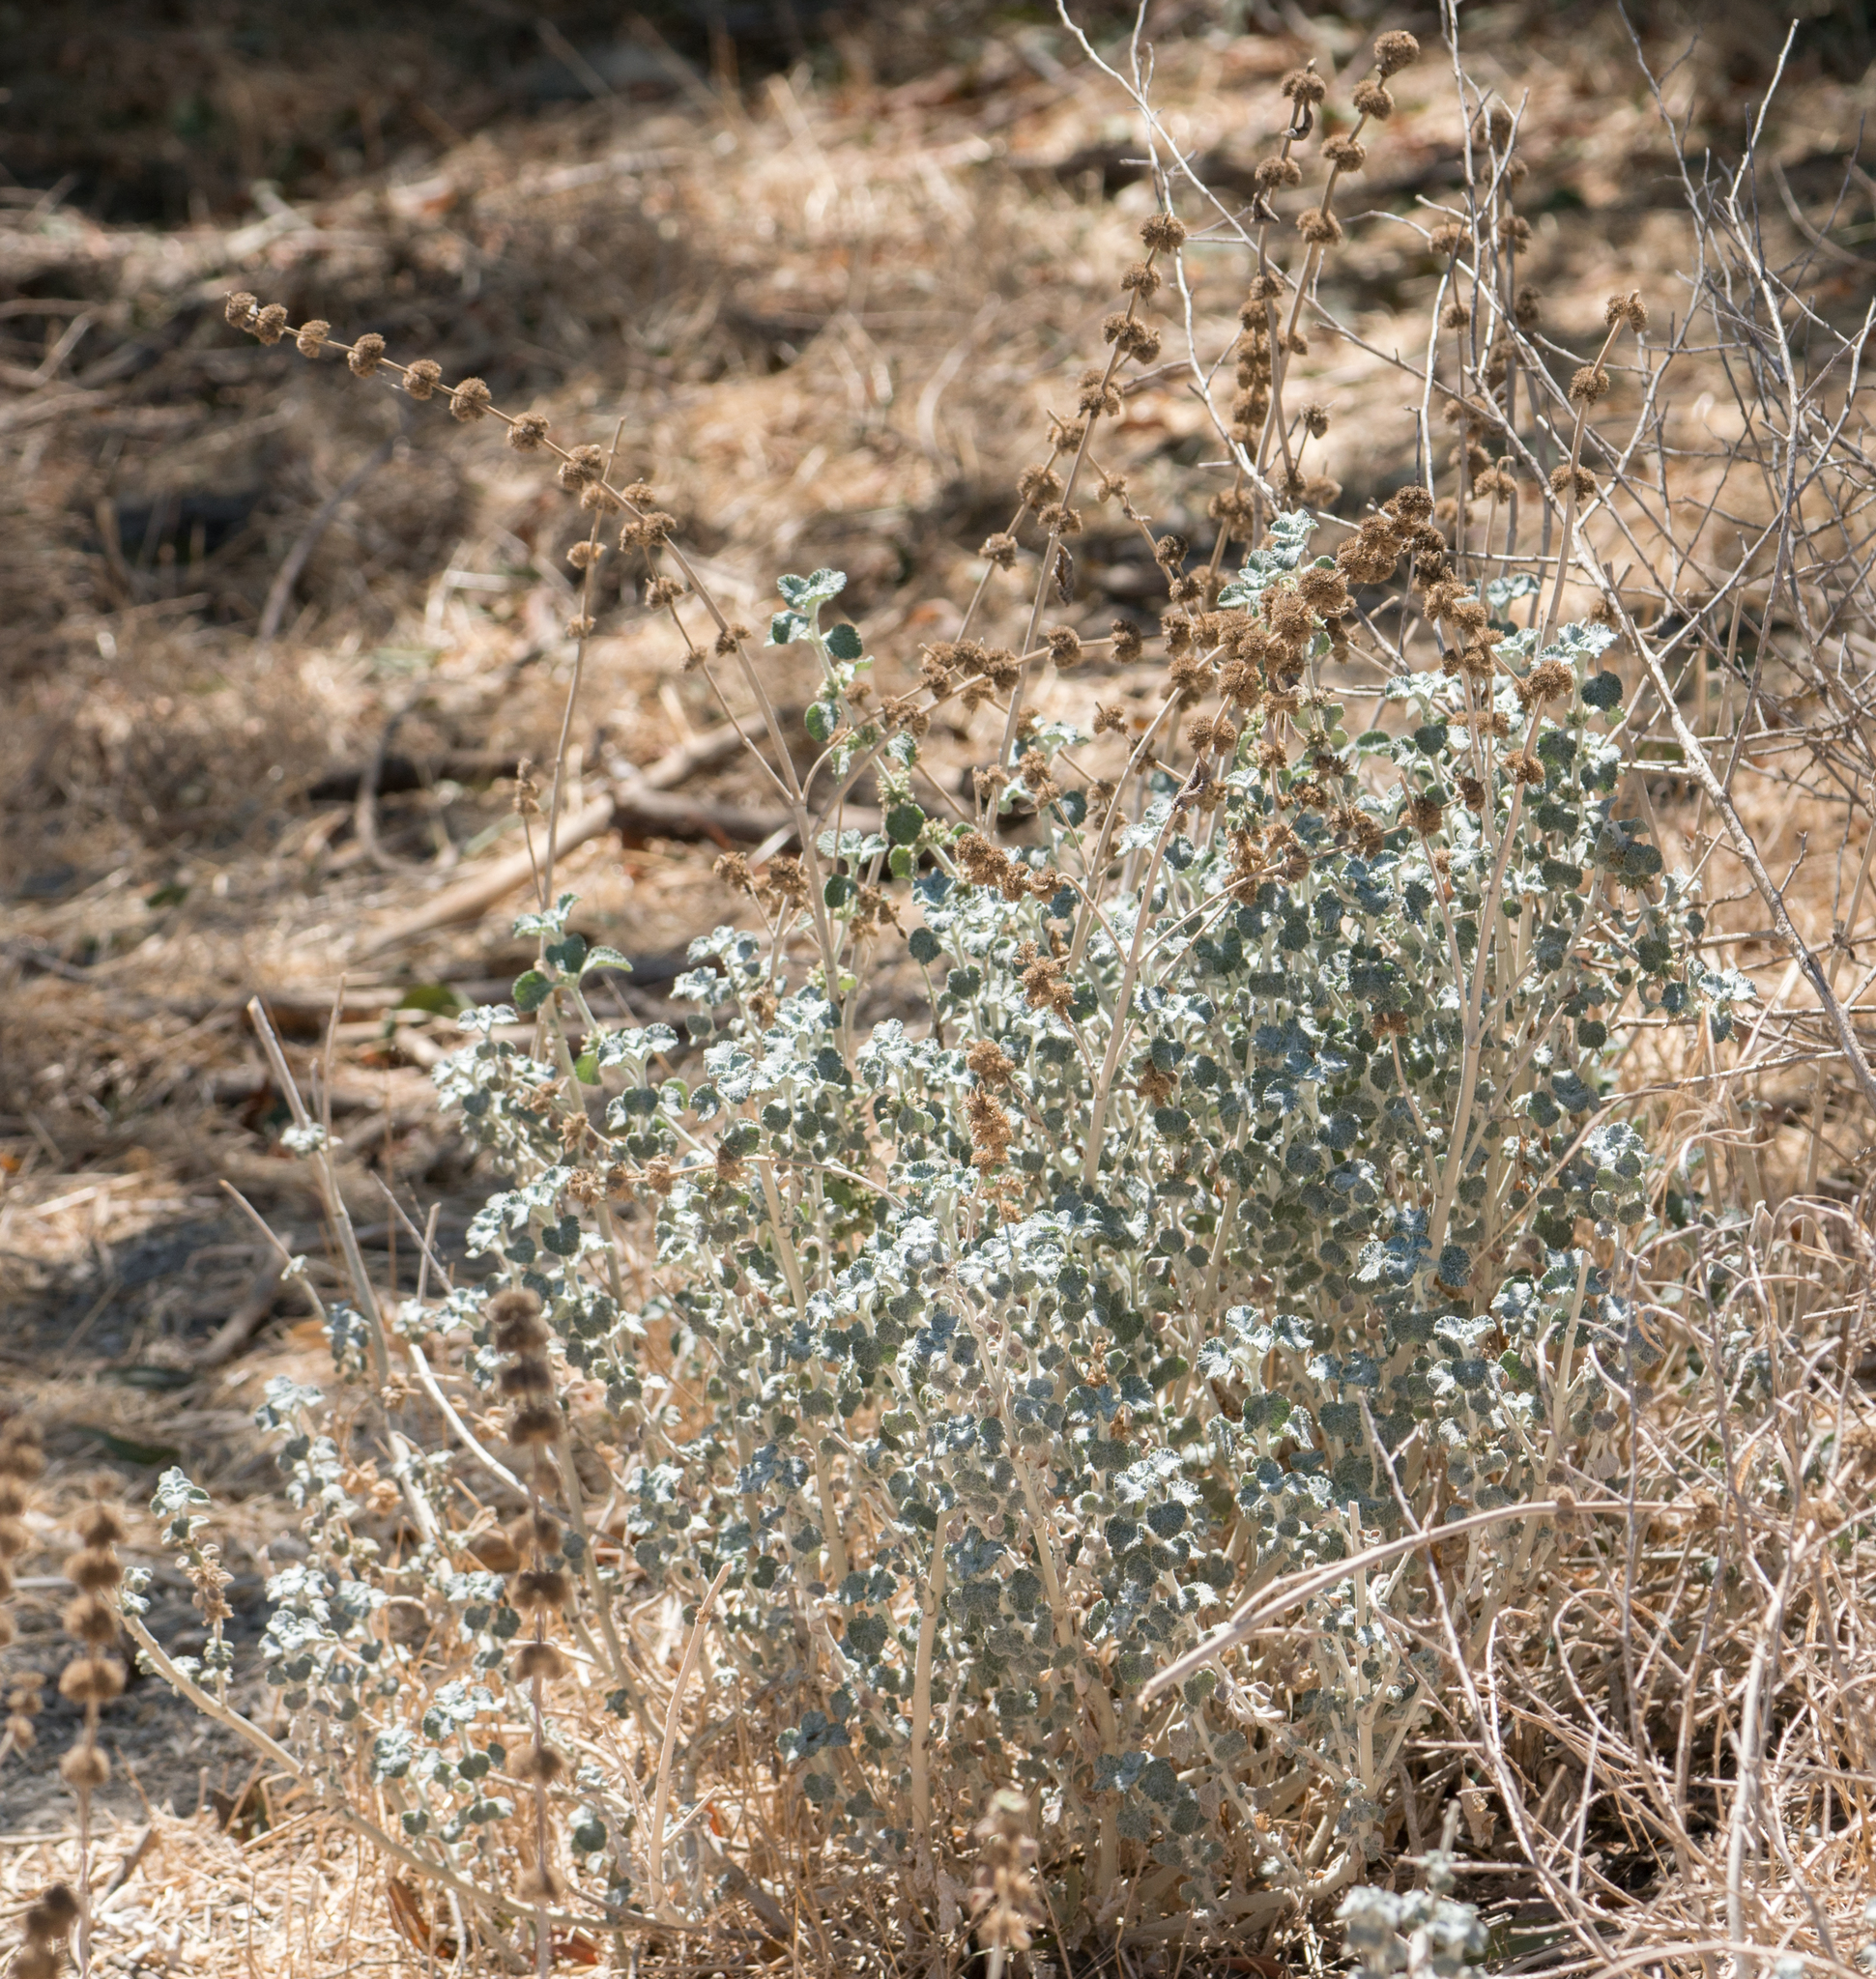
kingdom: Plantae
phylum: Tracheophyta
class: Magnoliopsida
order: Lamiales
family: Lamiaceae
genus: Marrubium
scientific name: Marrubium vulgare
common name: Horehound
